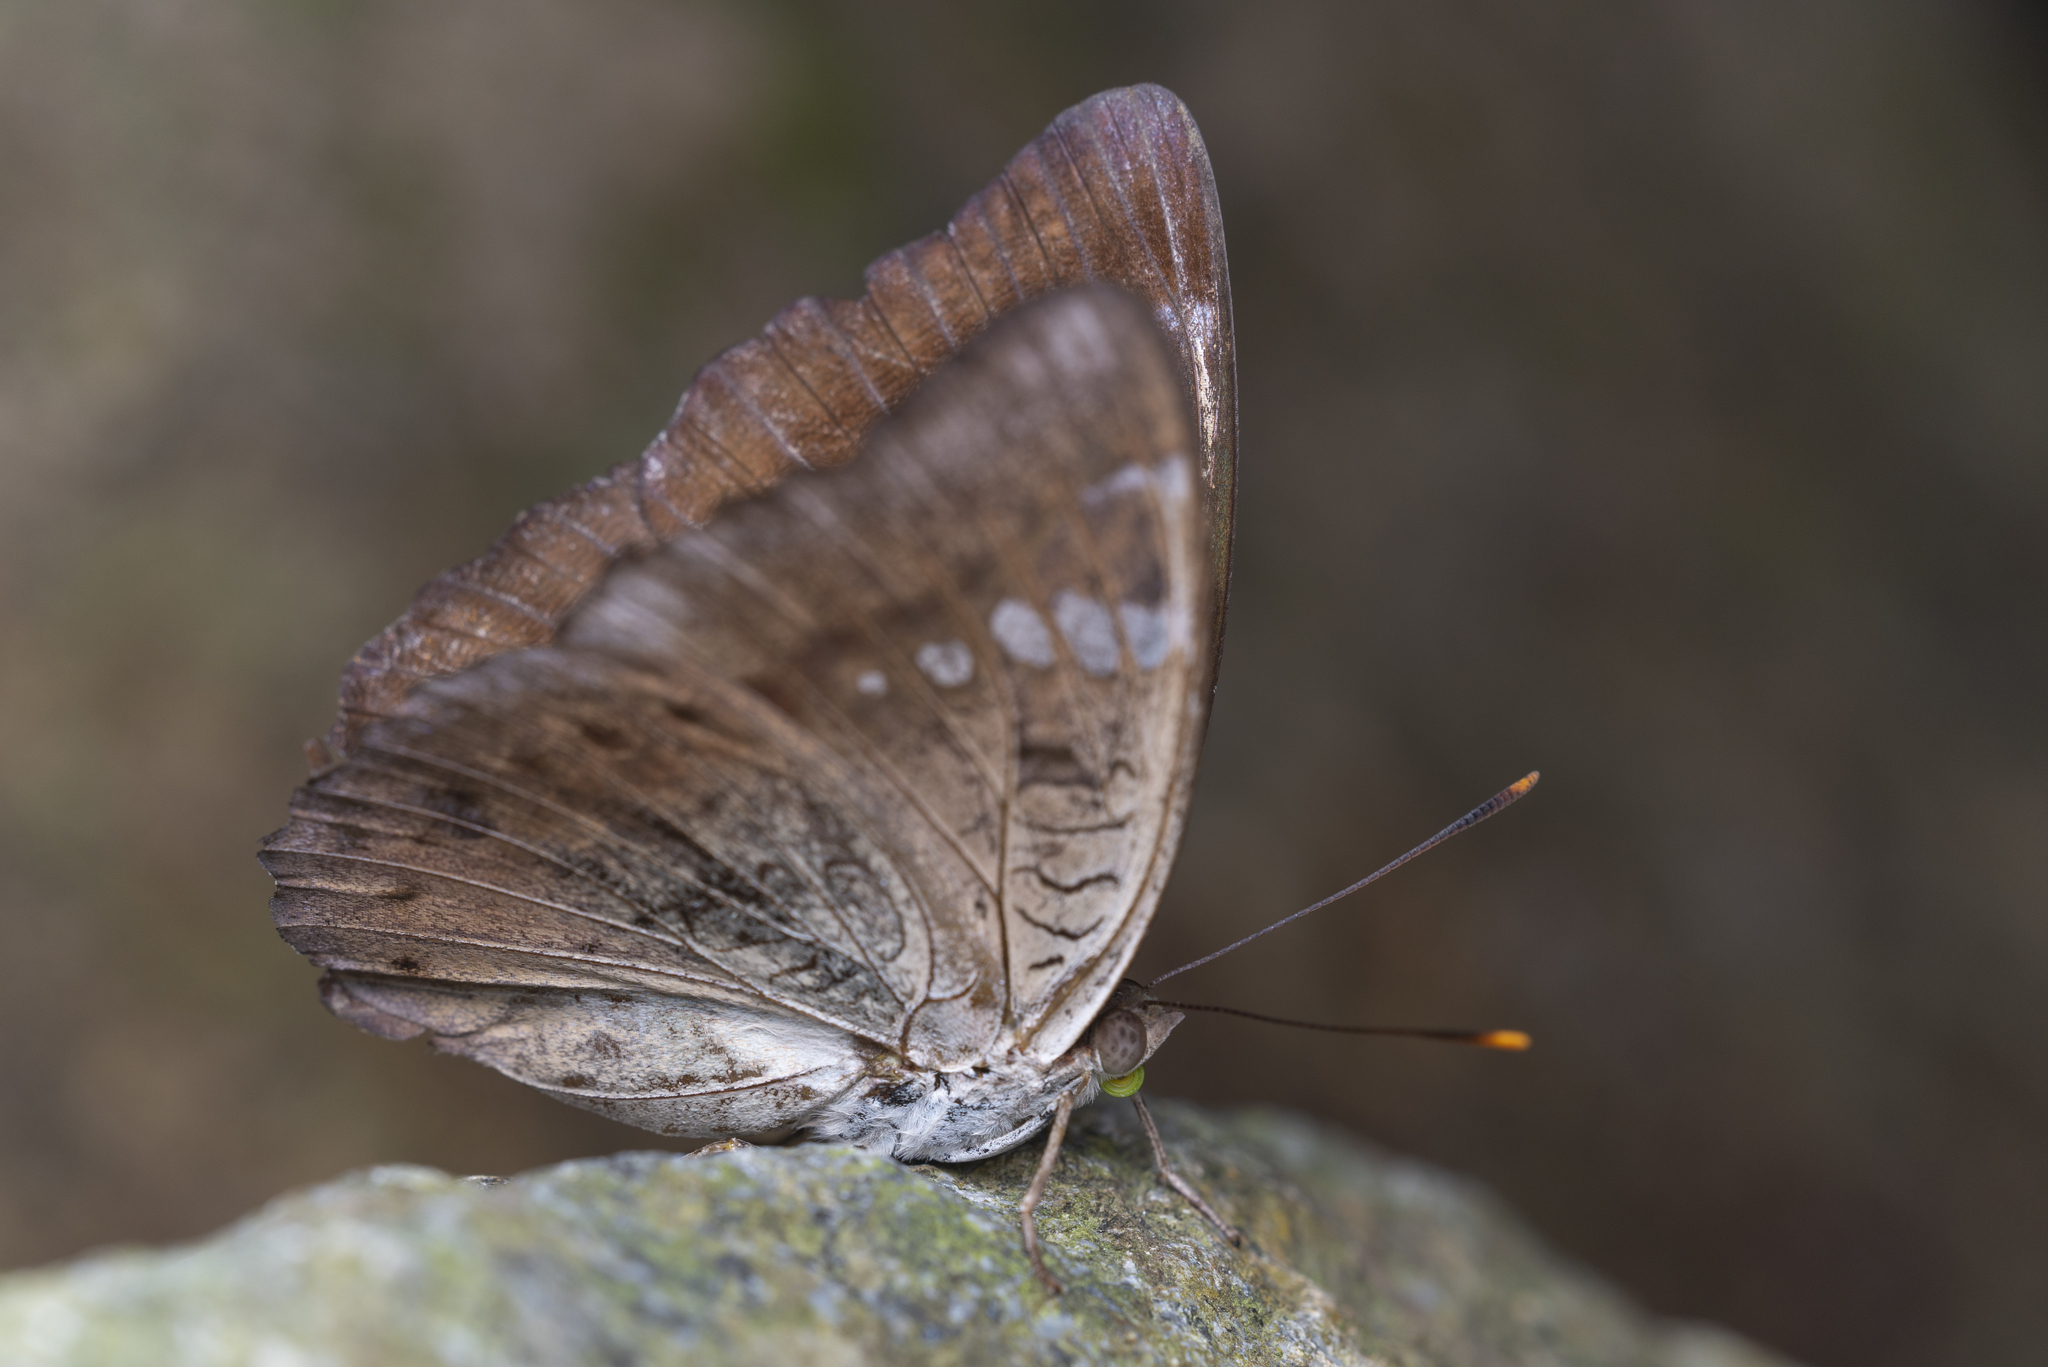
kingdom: Animalia
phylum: Arthropoda
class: Insecta
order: Lepidoptera
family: Nymphalidae
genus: Euthalia
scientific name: Euthalia aconthea
